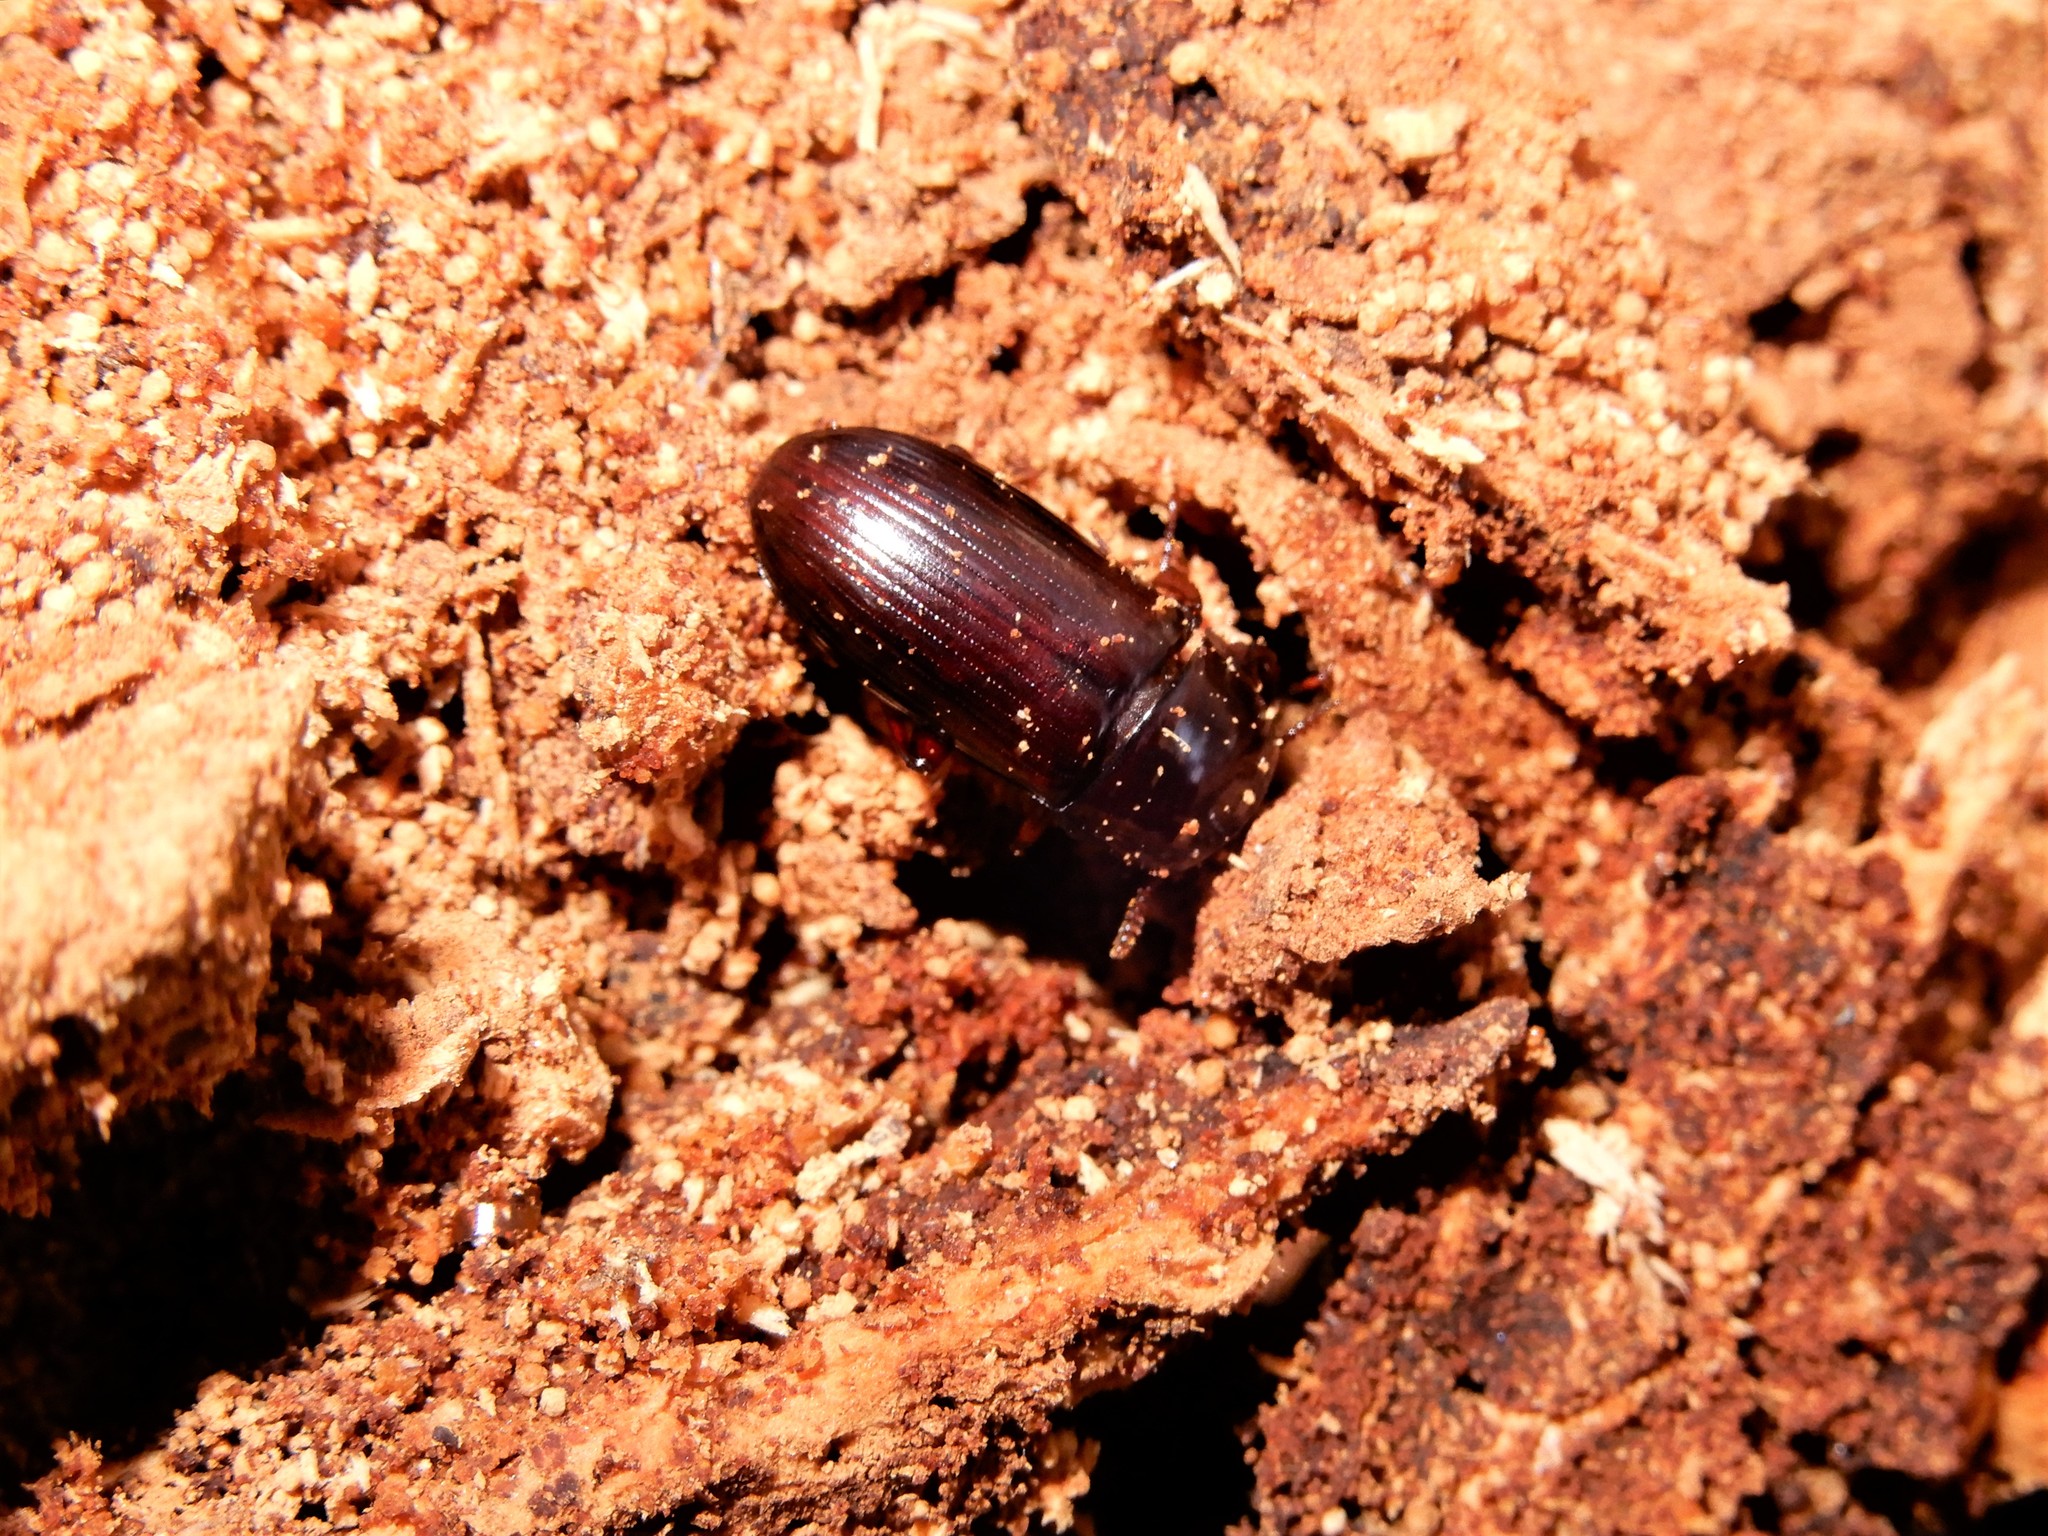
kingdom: Animalia
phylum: Arthropoda
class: Insecta
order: Coleoptera
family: Tenebrionidae
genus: Uloma
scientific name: Uloma tenebrionoides
